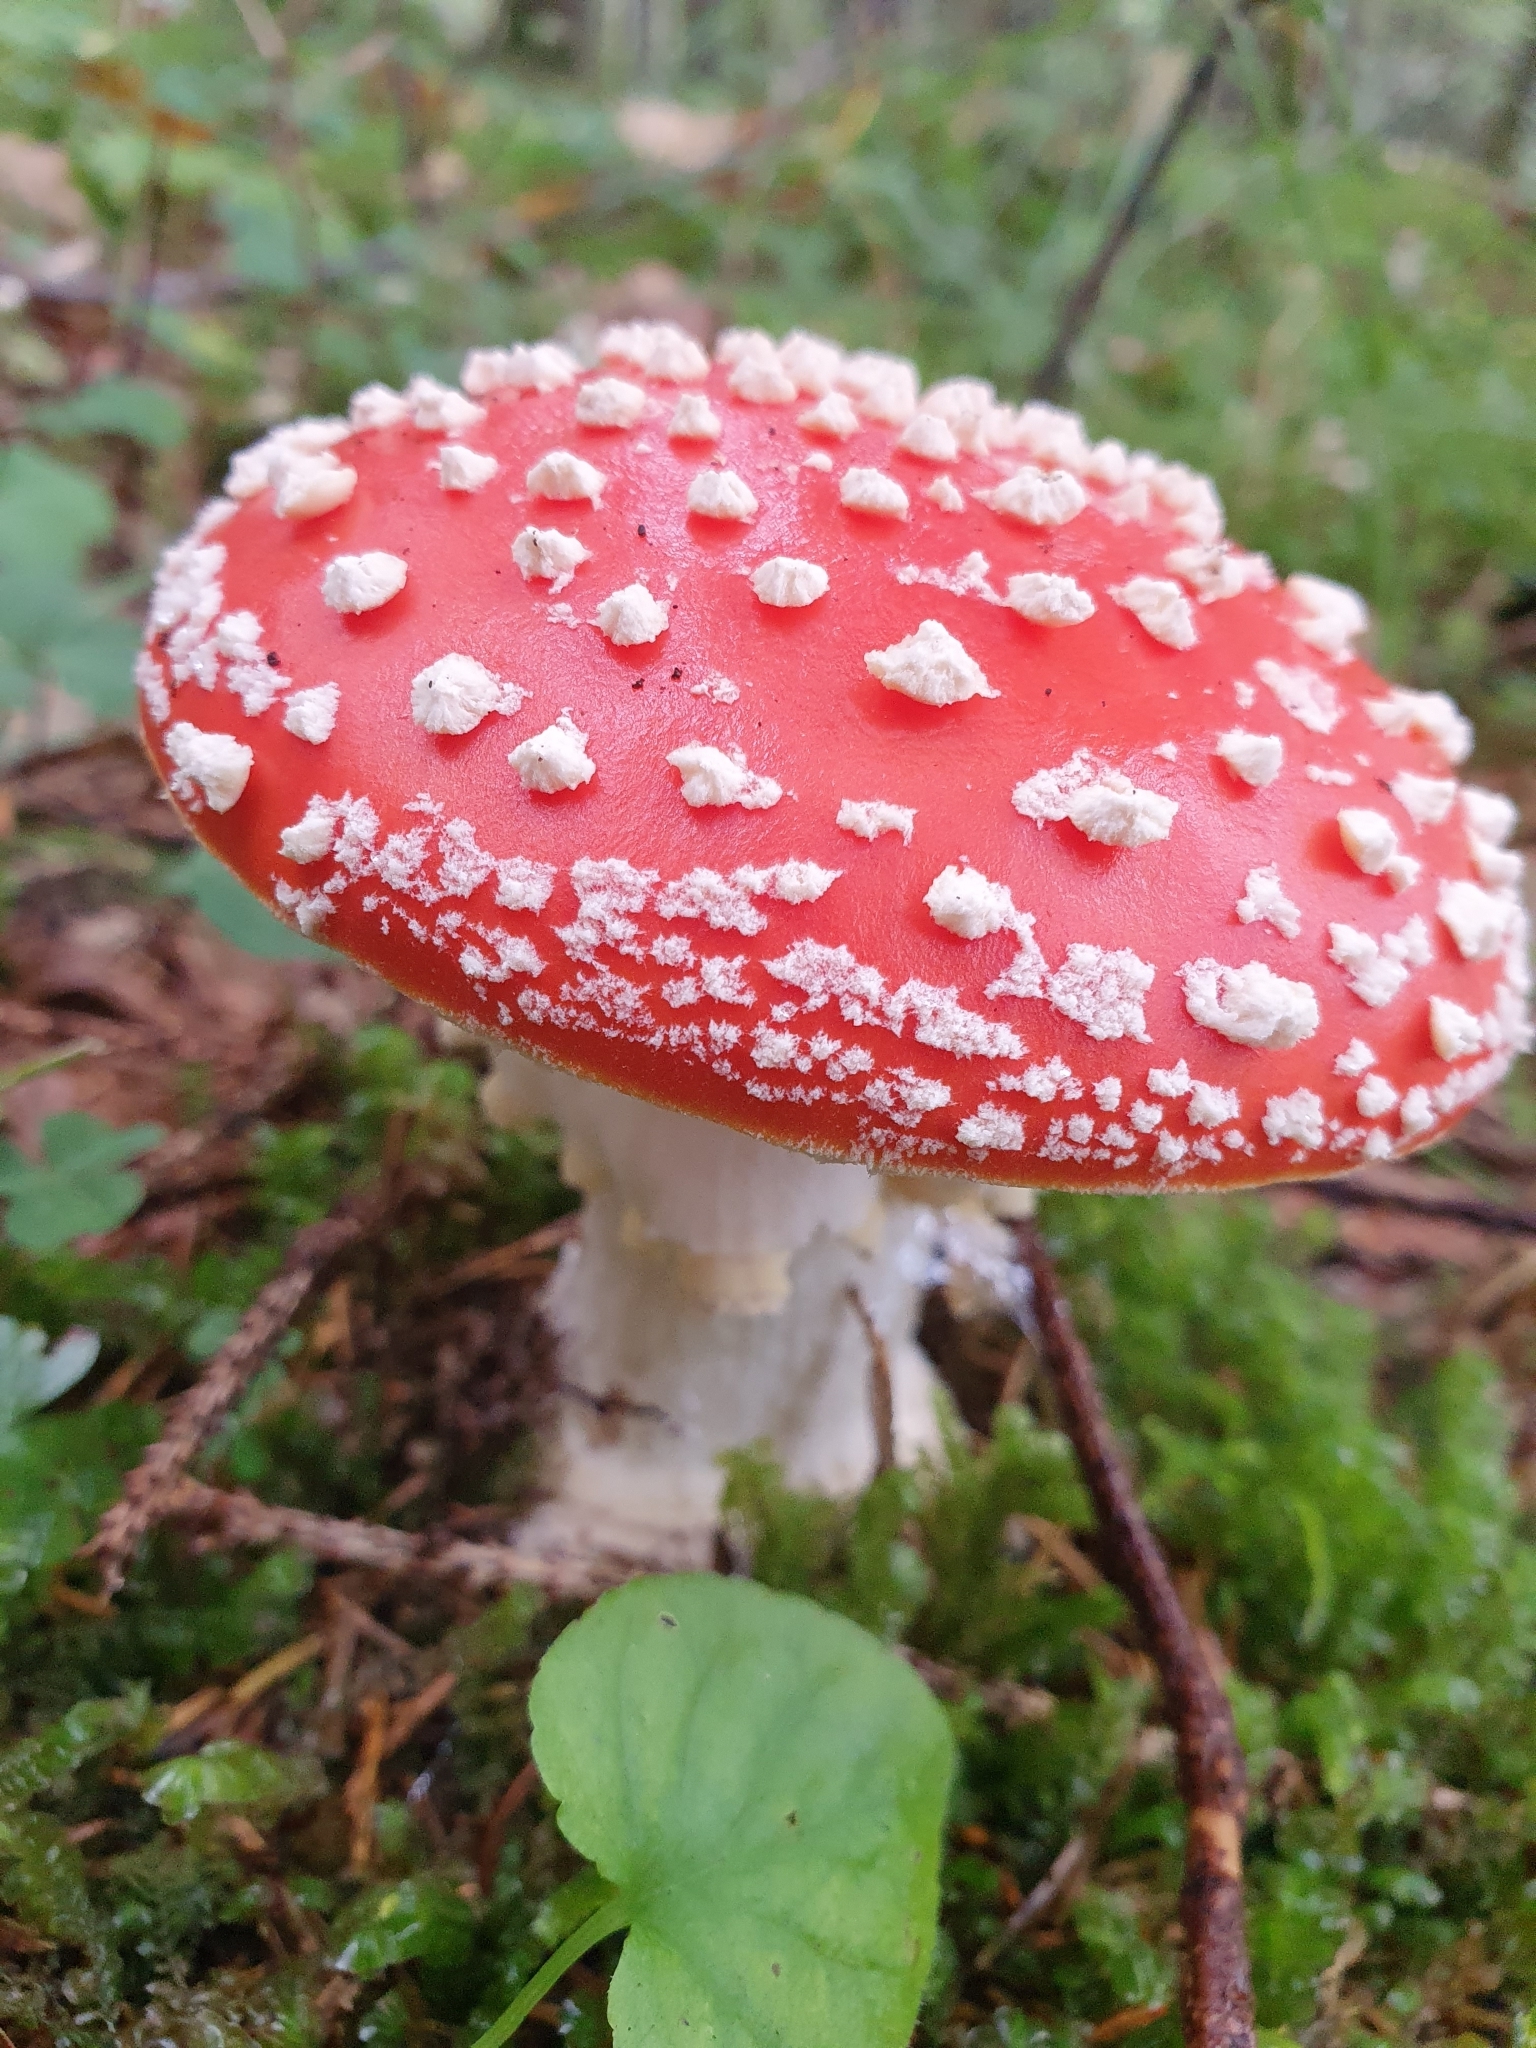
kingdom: Fungi
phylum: Basidiomycota
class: Agaricomycetes
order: Agaricales
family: Amanitaceae
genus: Amanita
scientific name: Amanita muscaria
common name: Fly agaric
